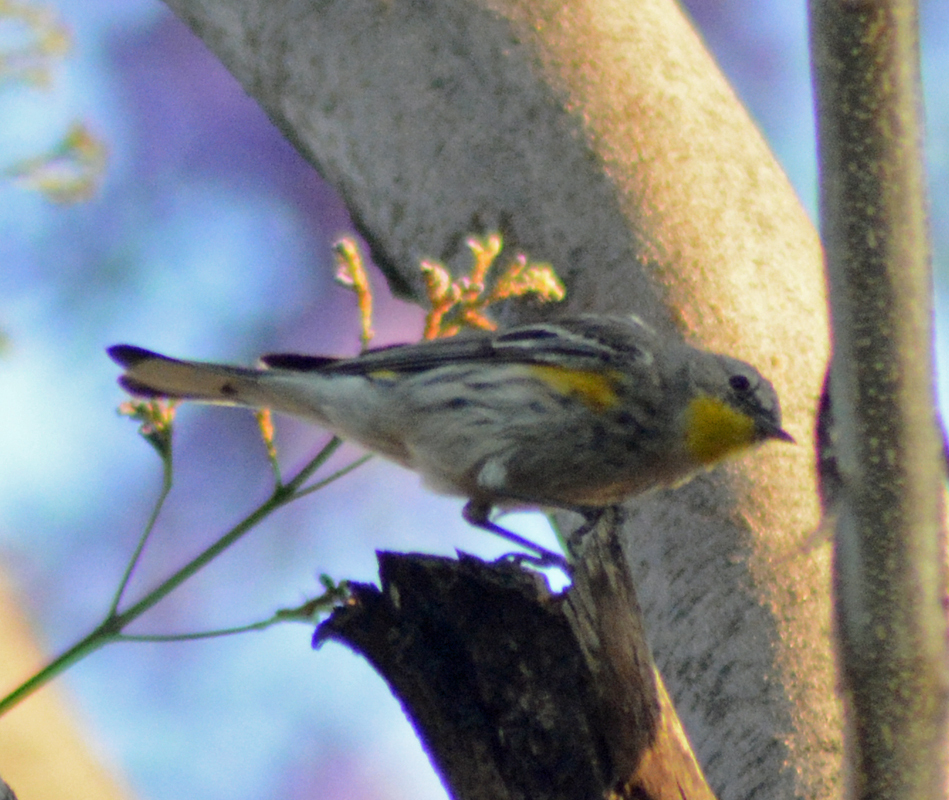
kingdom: Animalia
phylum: Chordata
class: Aves
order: Passeriformes
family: Parulidae
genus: Setophaga
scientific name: Setophaga coronata
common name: Myrtle warbler
